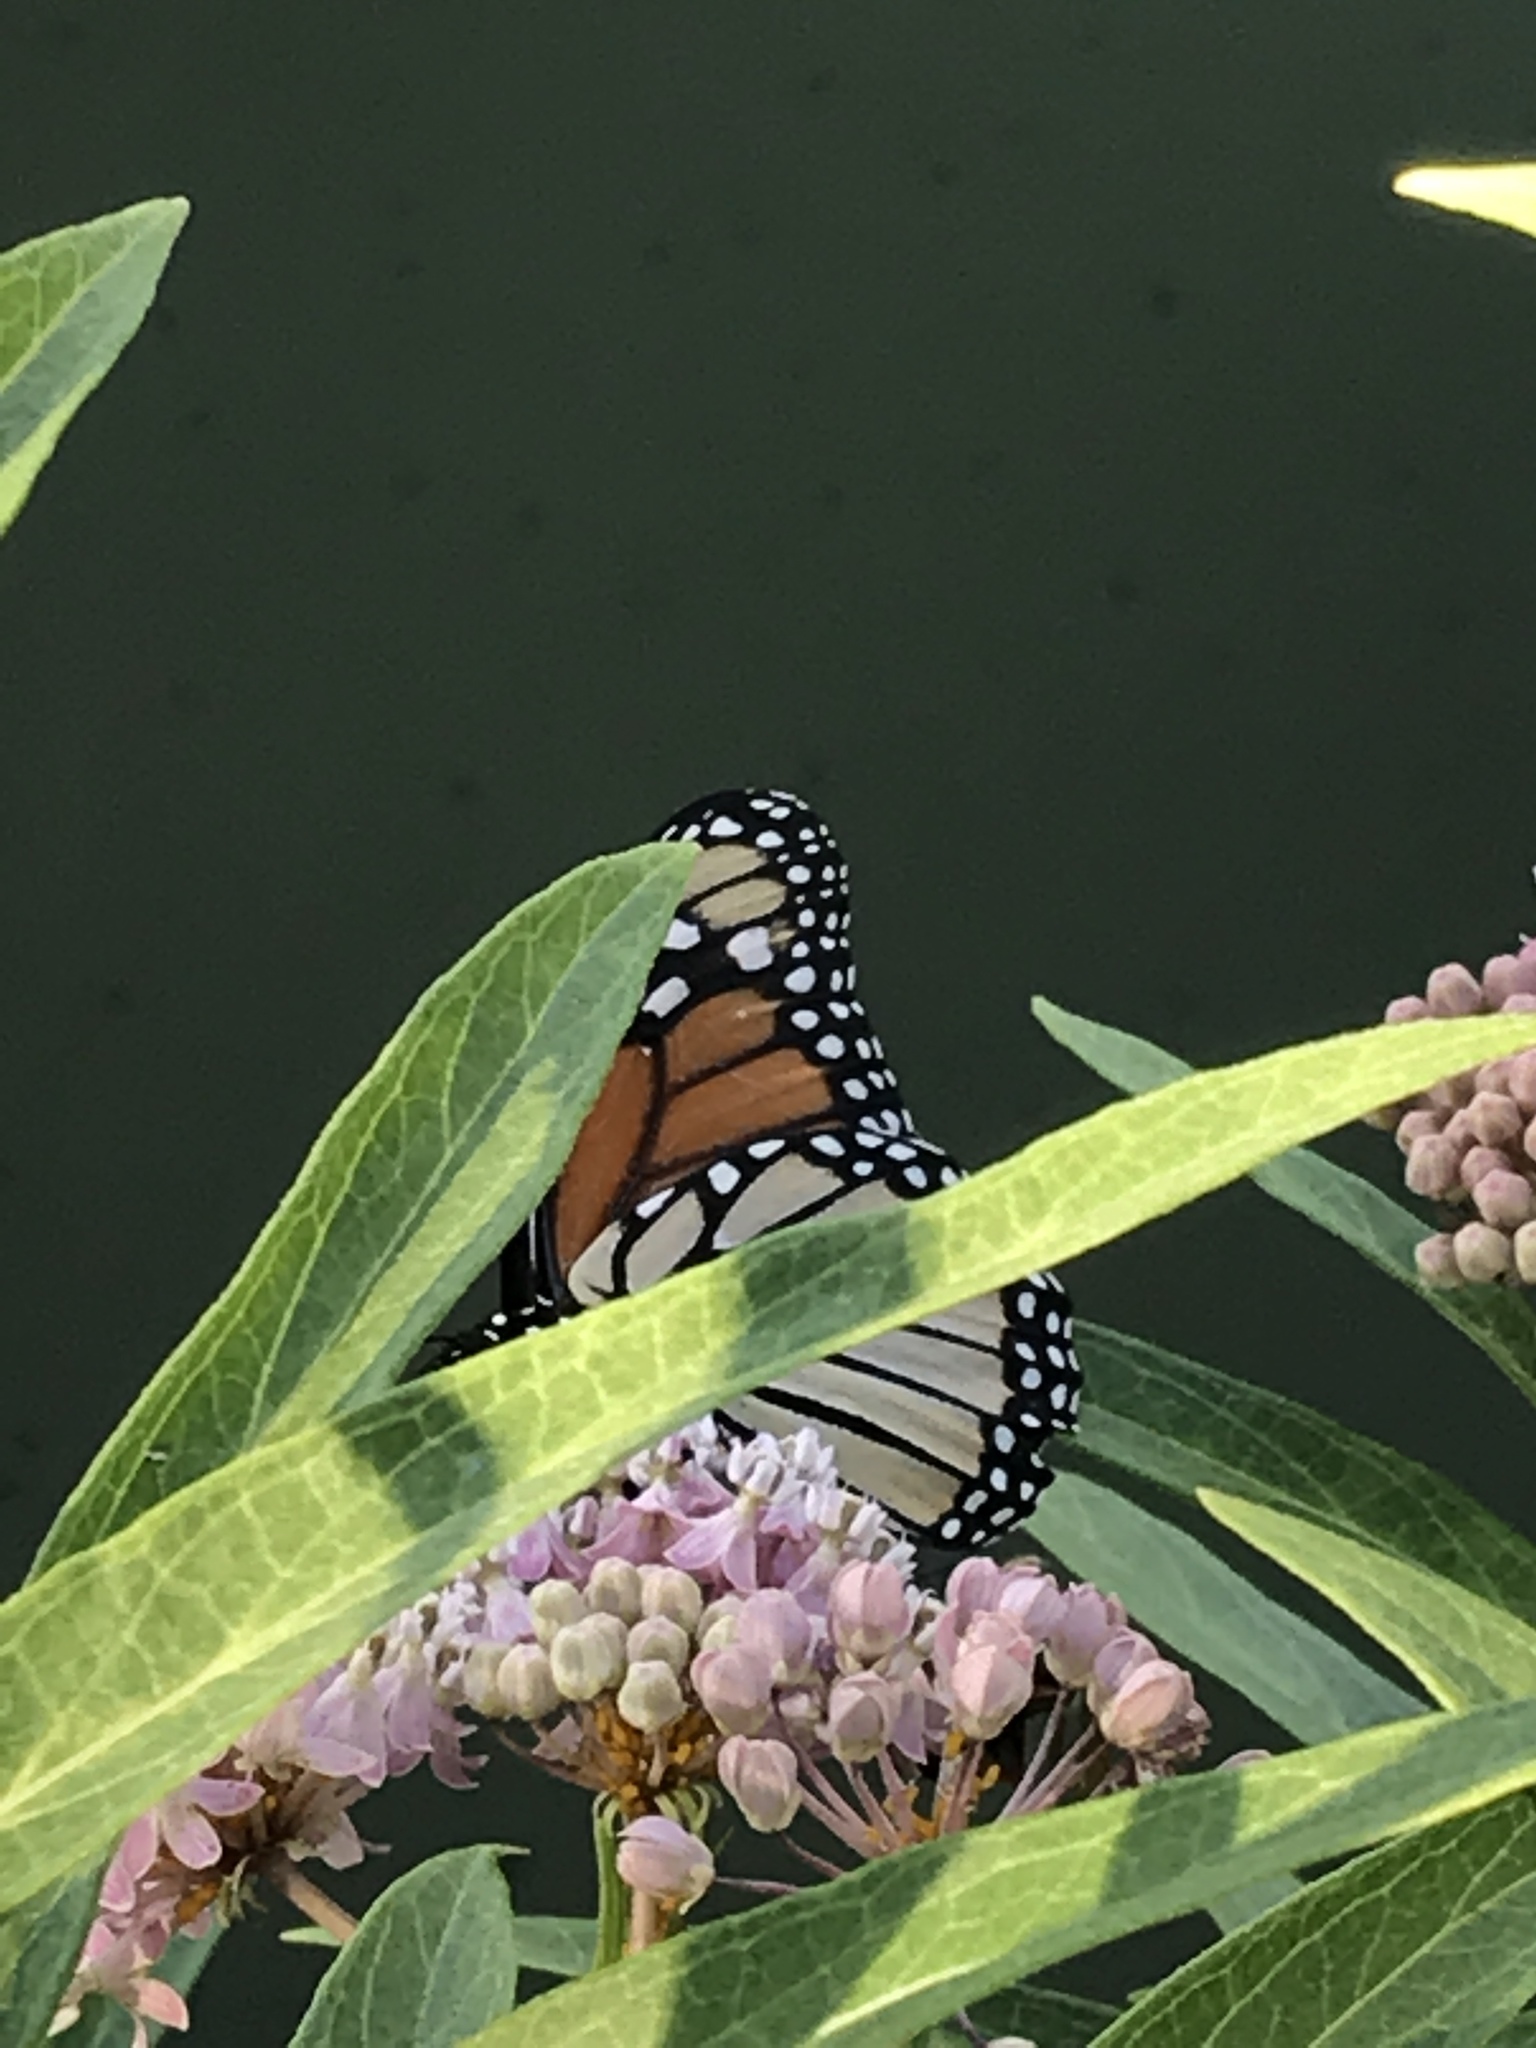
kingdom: Animalia
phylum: Arthropoda
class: Insecta
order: Lepidoptera
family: Nymphalidae
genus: Danaus
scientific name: Danaus plexippus
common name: Monarch
